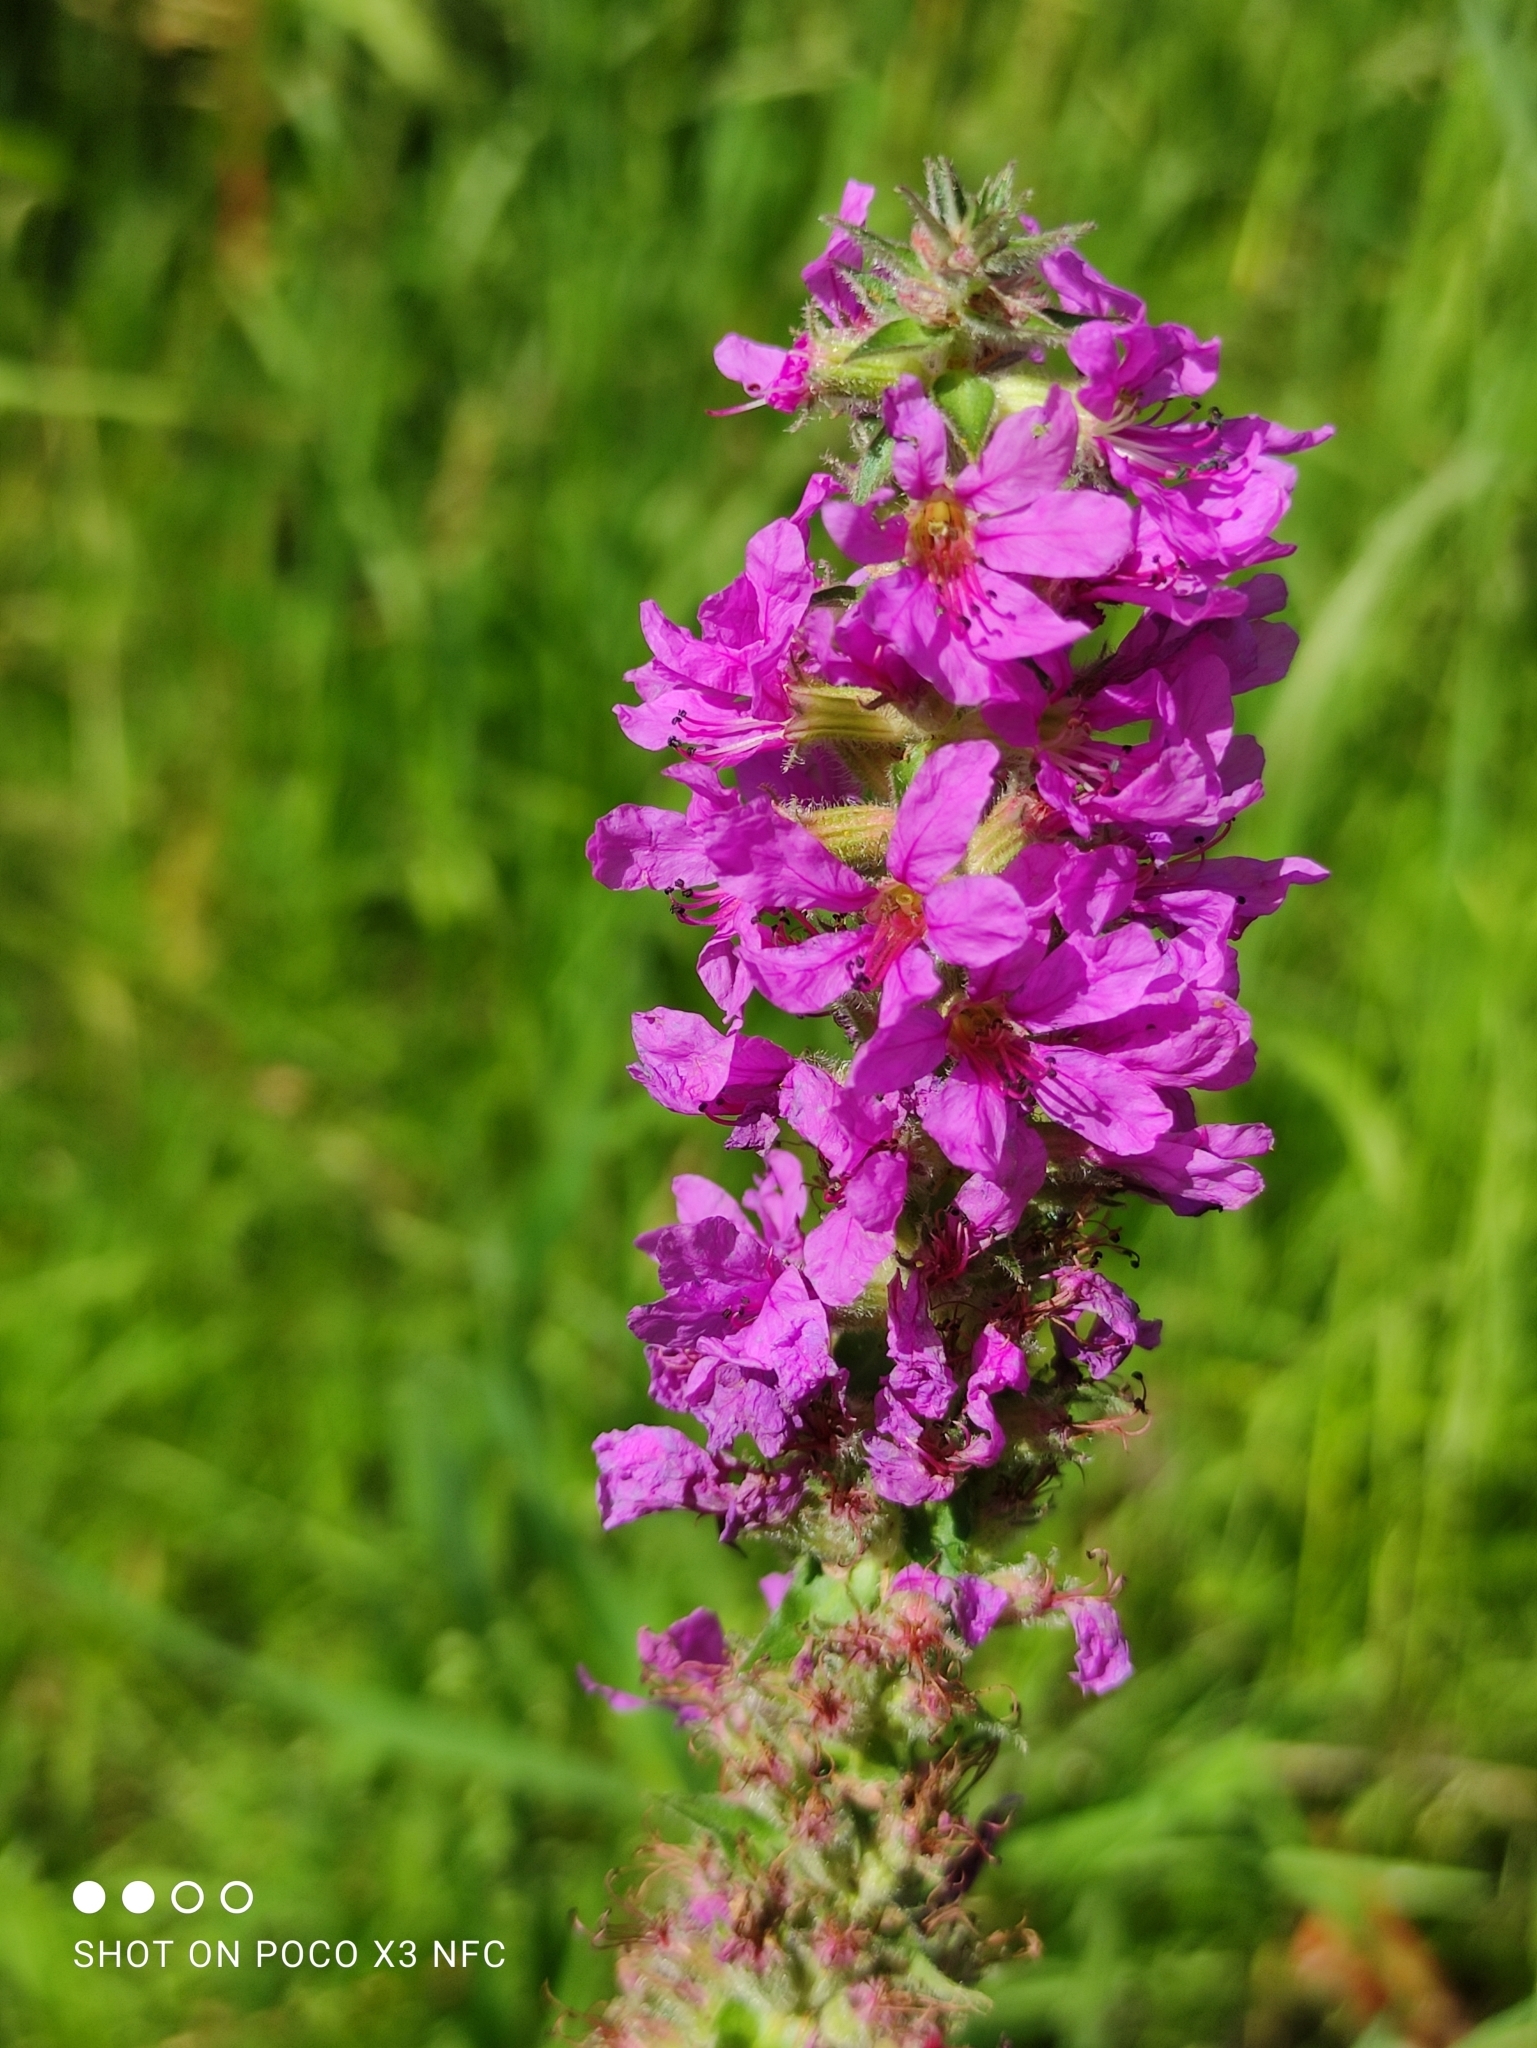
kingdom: Plantae
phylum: Tracheophyta
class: Magnoliopsida
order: Myrtales
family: Lythraceae
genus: Lythrum
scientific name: Lythrum salicaria
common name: Purple loosestrife
